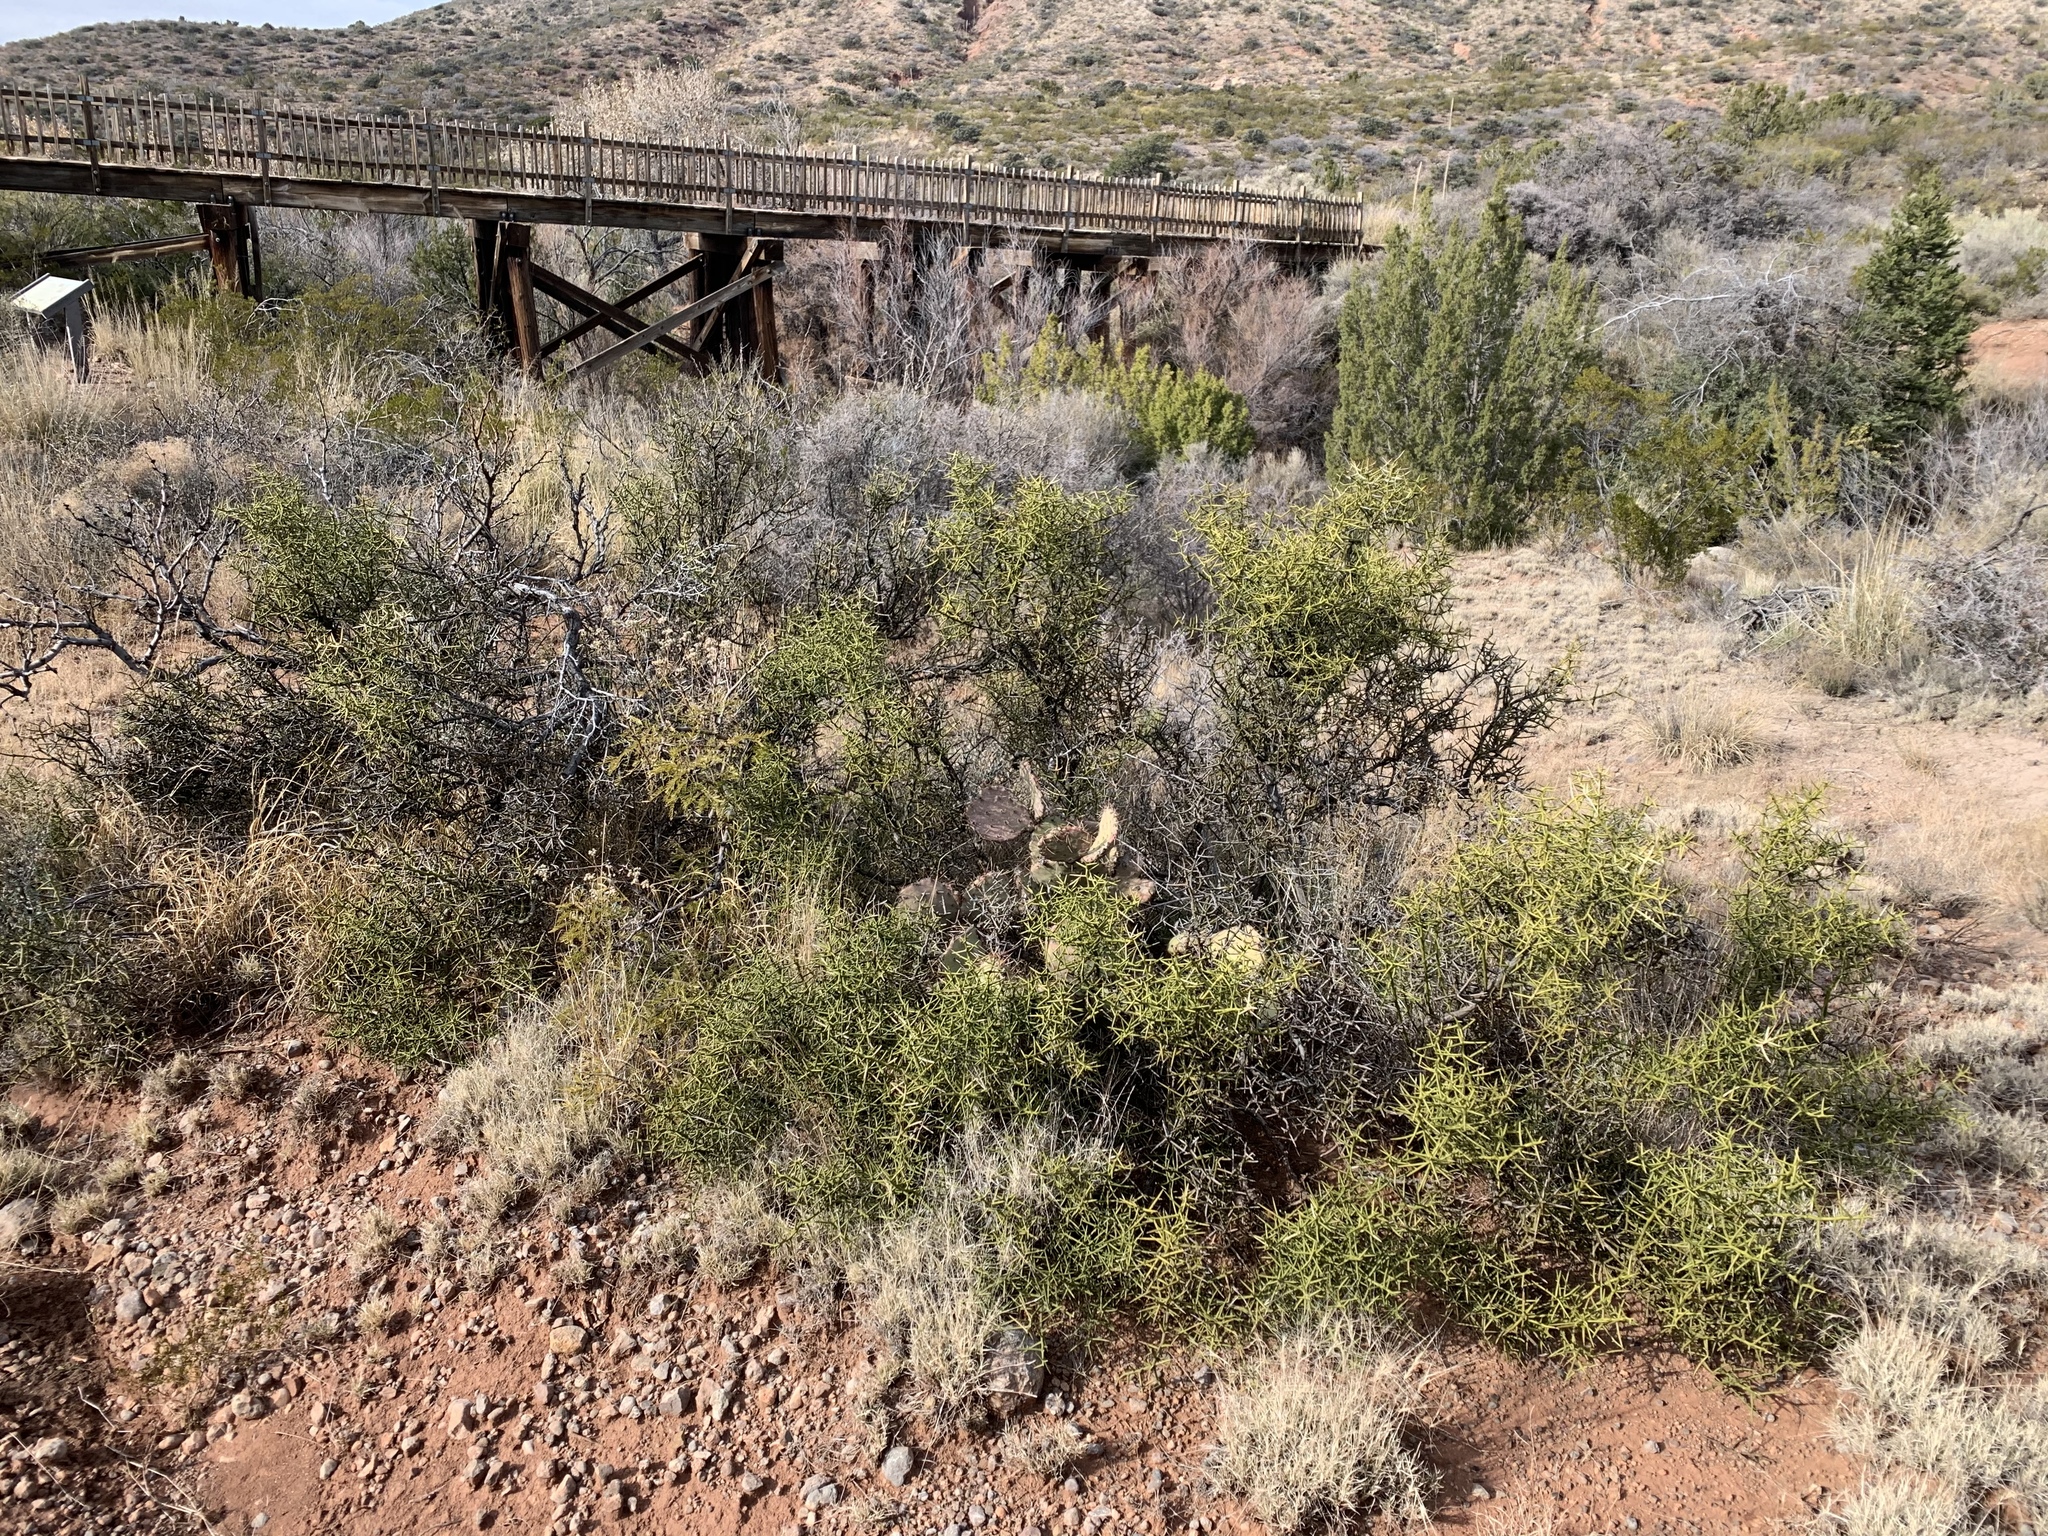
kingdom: Plantae
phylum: Tracheophyta
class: Magnoliopsida
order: Brassicales
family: Koeberliniaceae
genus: Koeberlinia
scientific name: Koeberlinia spinosa
